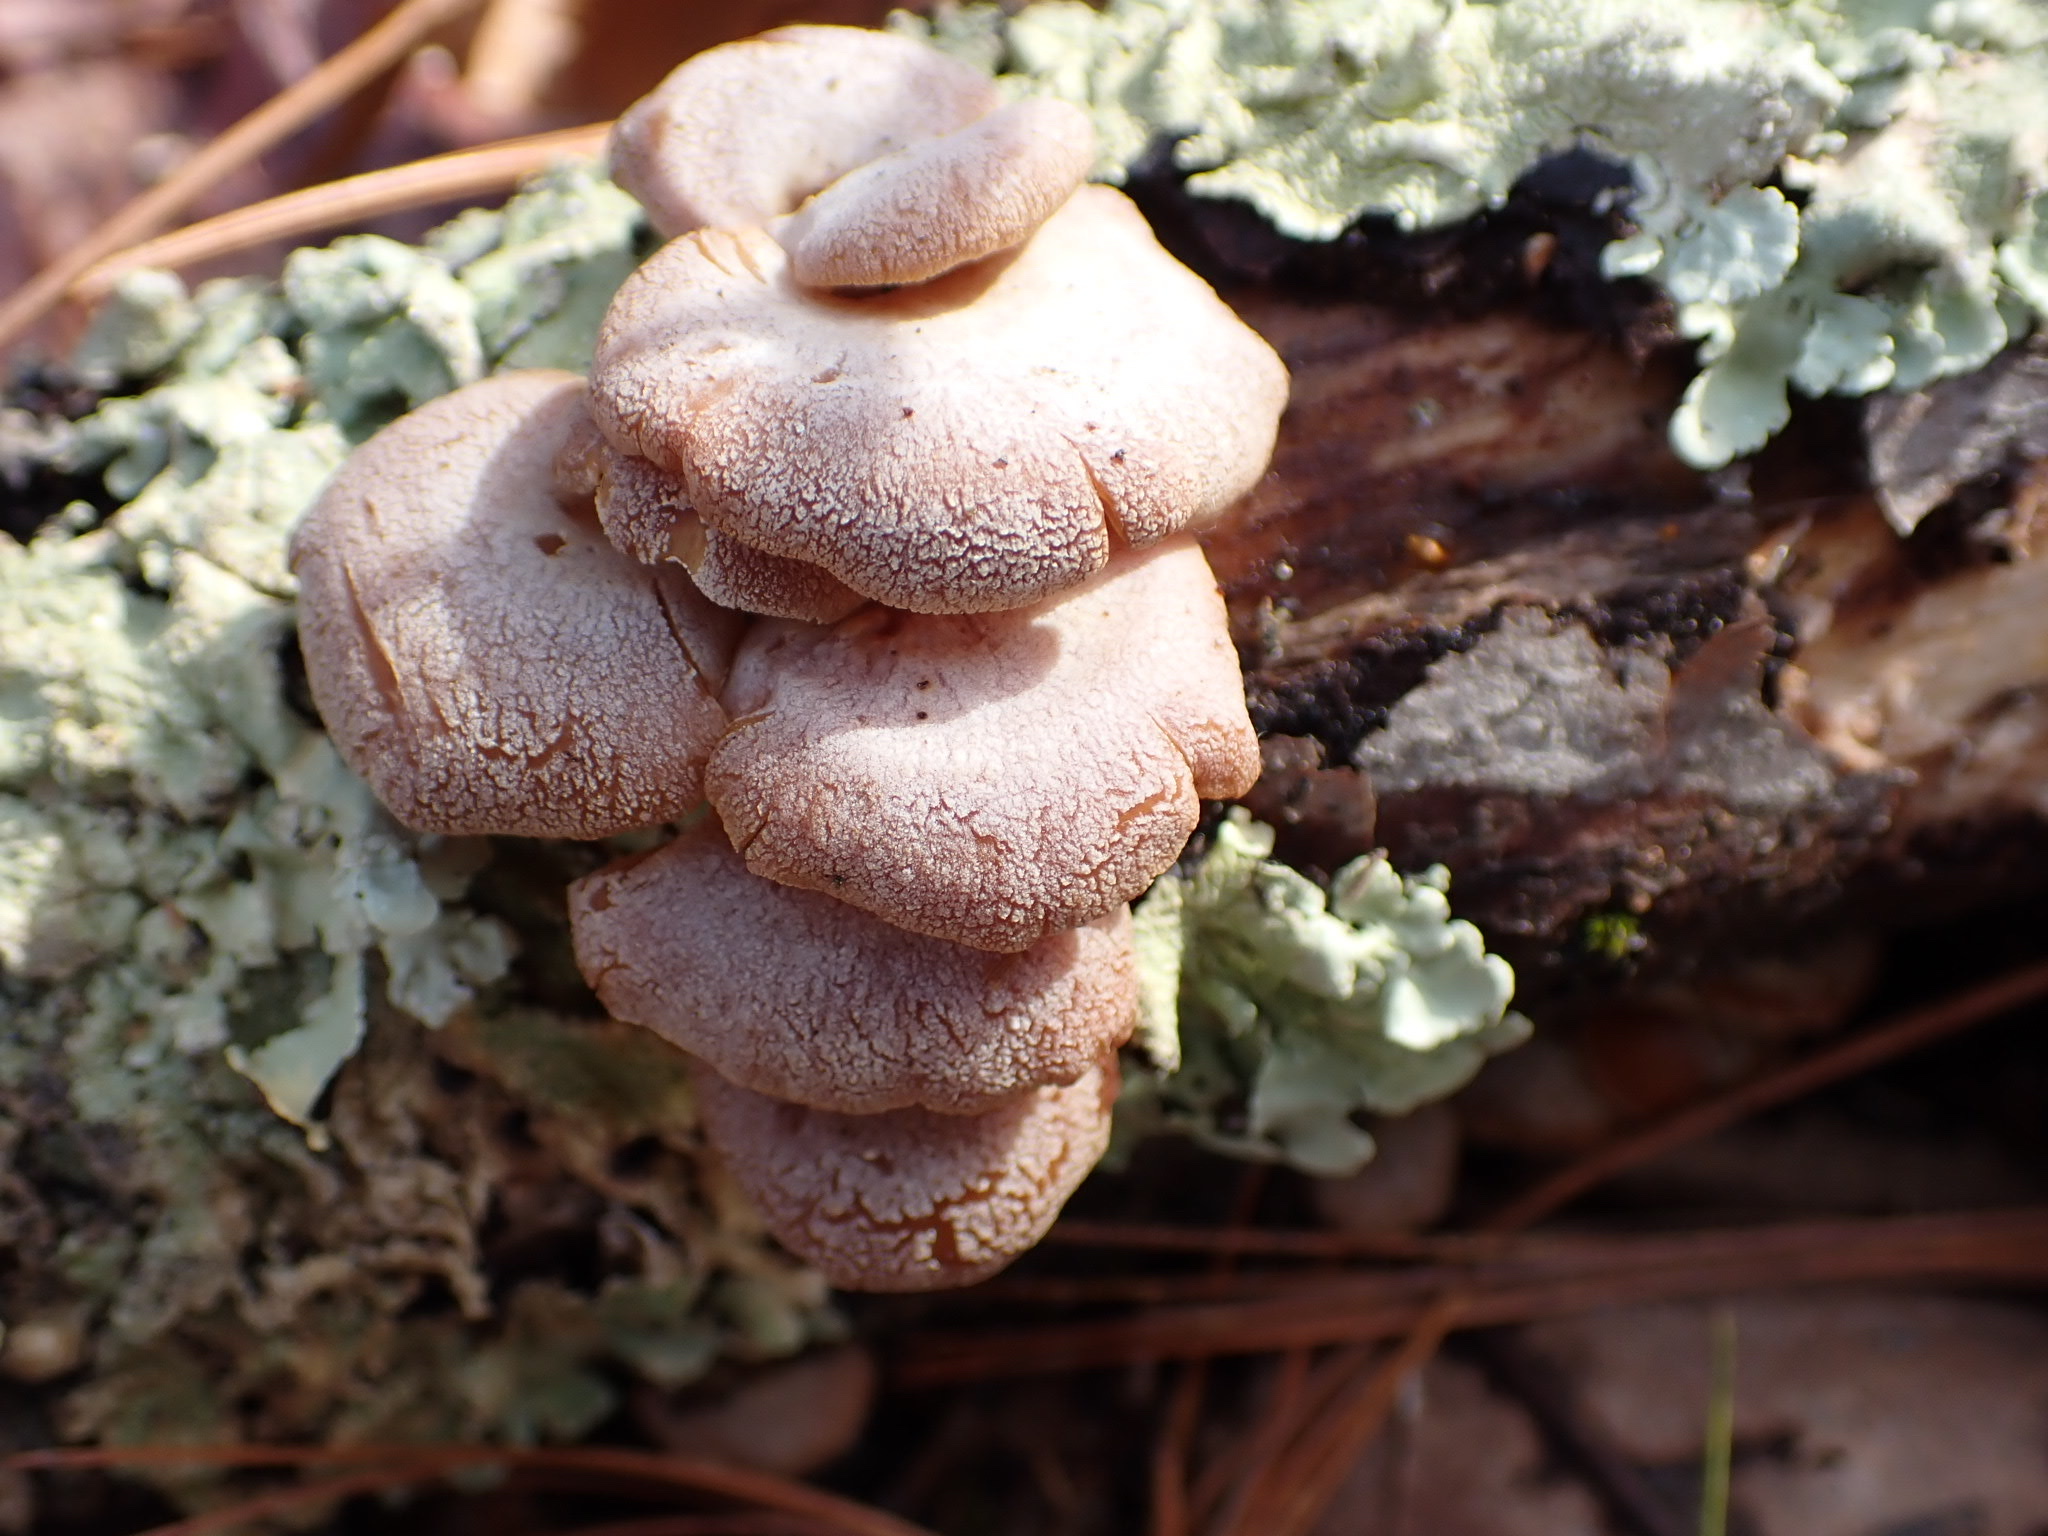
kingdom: Fungi
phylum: Basidiomycota
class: Agaricomycetes
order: Agaricales
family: Mycenaceae
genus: Panellus
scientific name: Panellus stipticus
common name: Bitter oysterling
